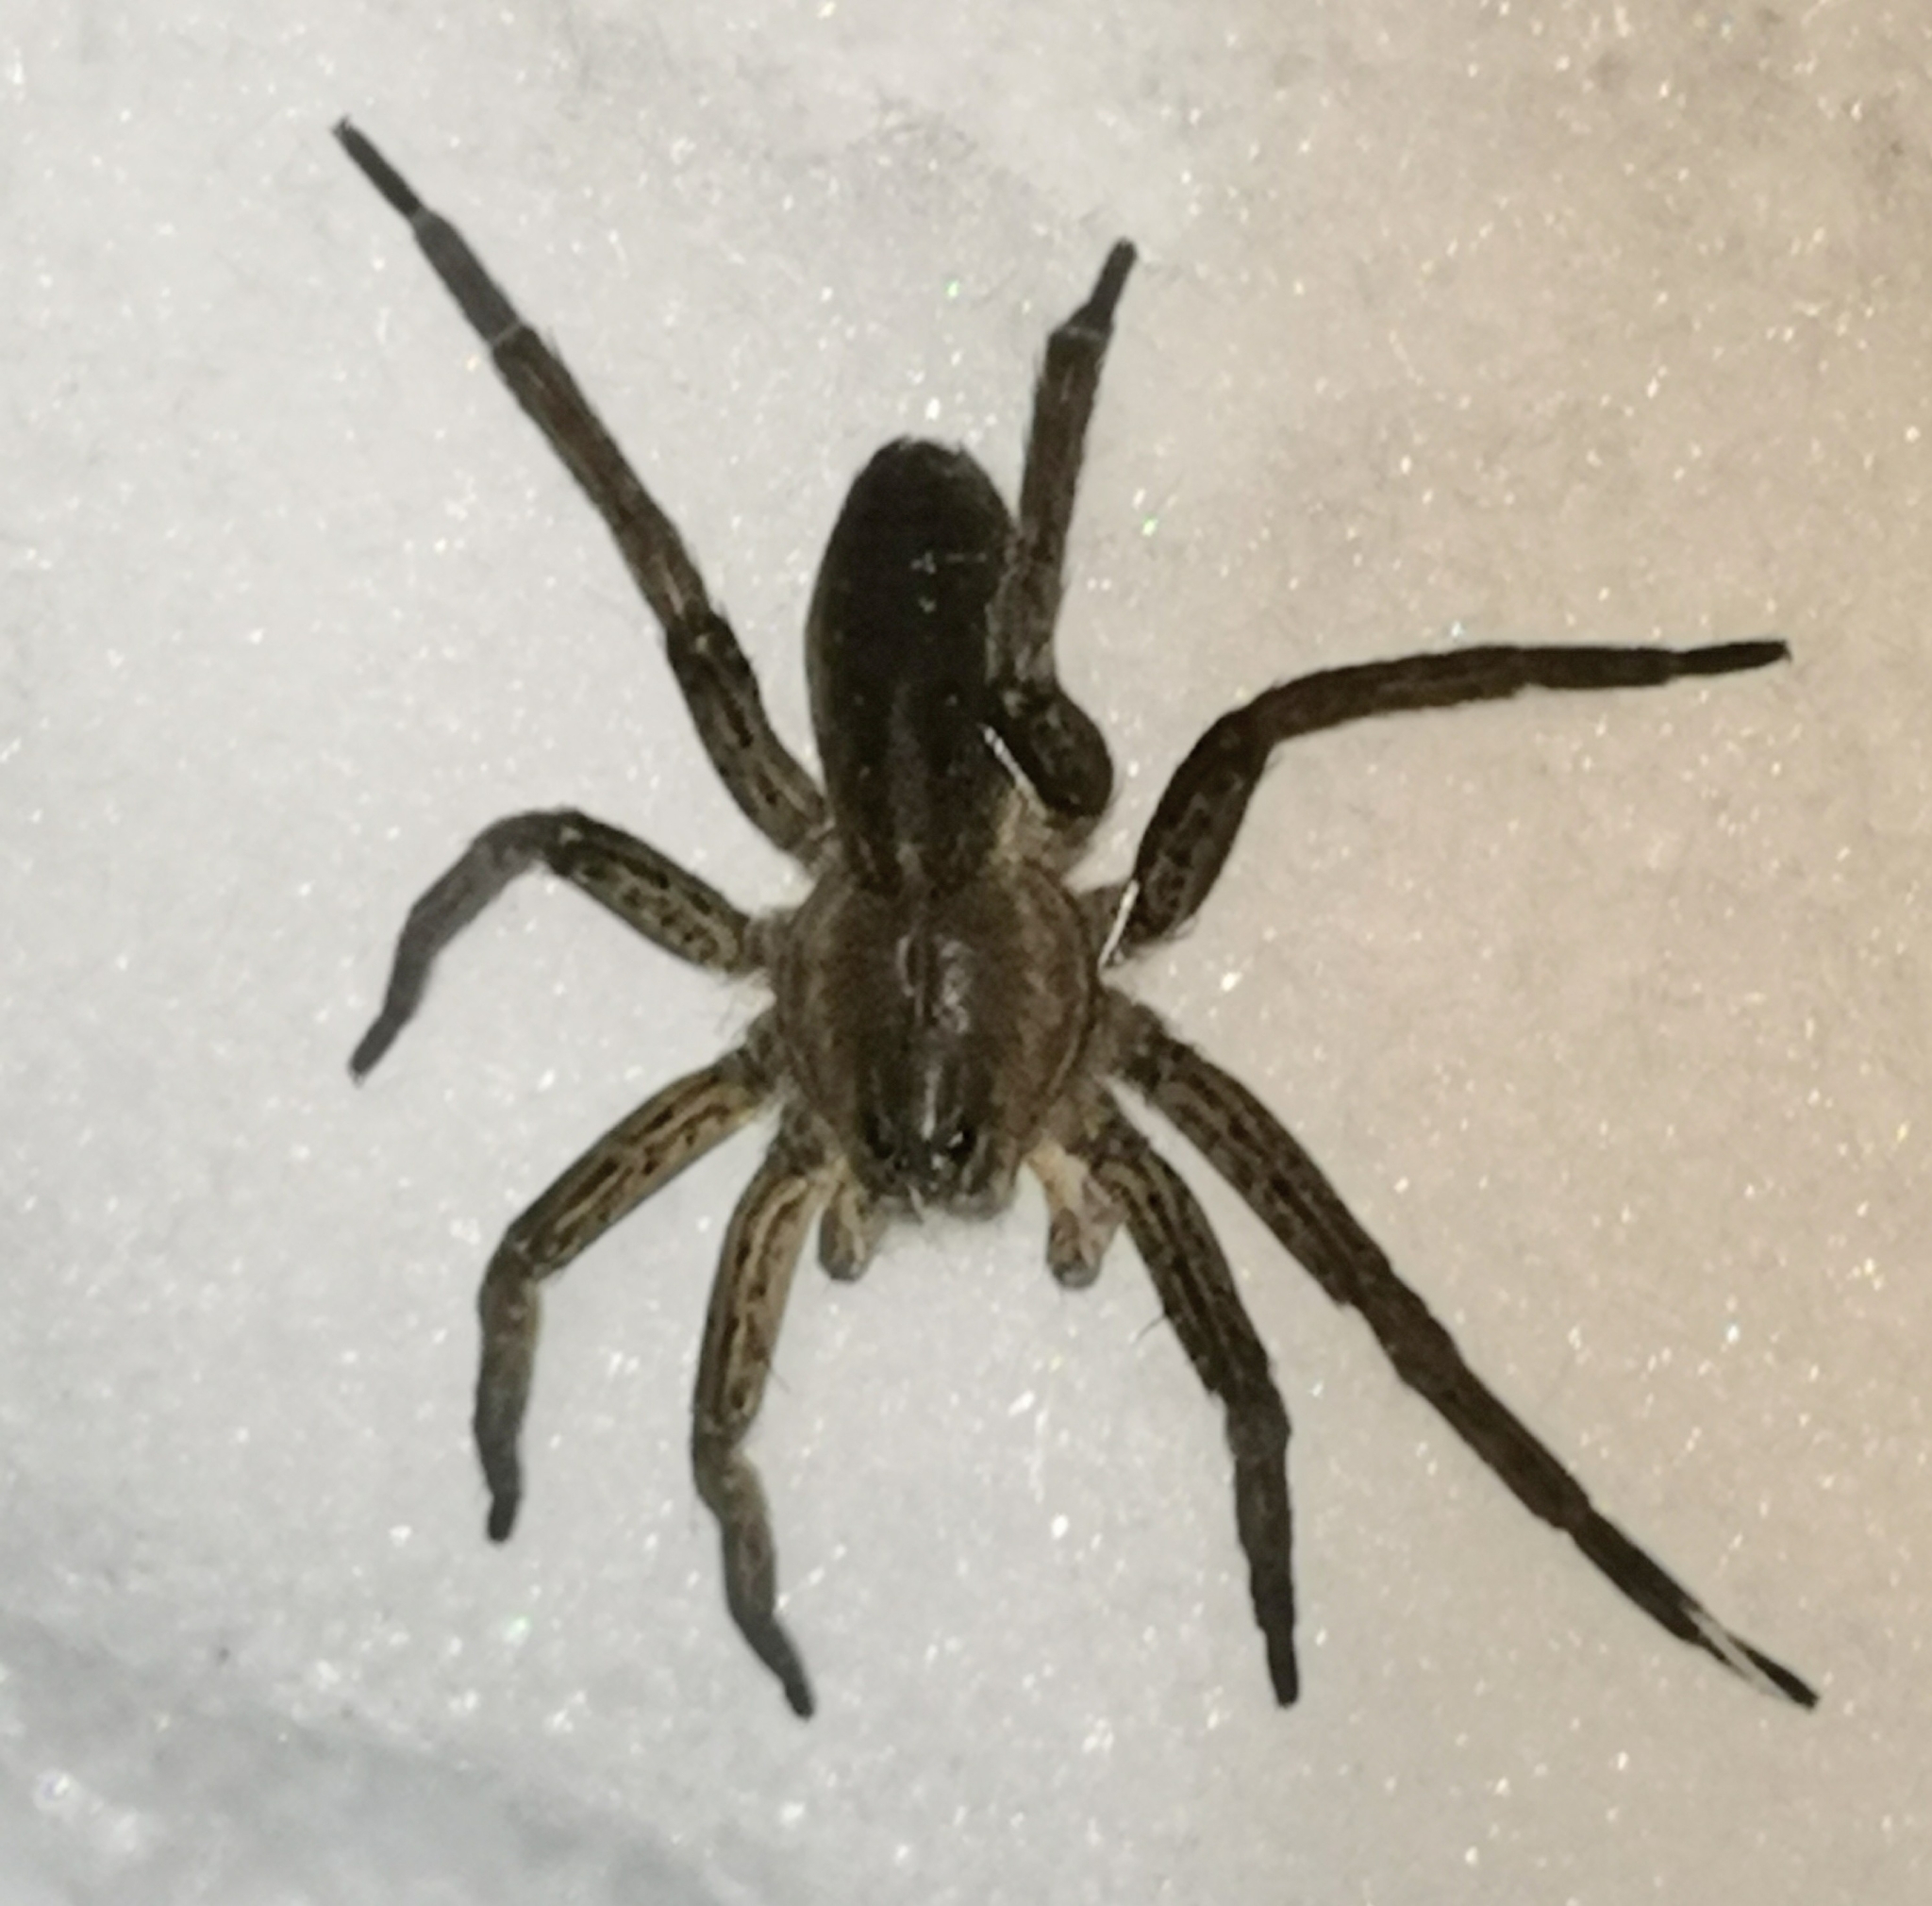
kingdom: Animalia
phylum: Arthropoda
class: Arachnida
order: Araneae
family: Pisauridae
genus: Dolomedes
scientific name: Dolomedes
